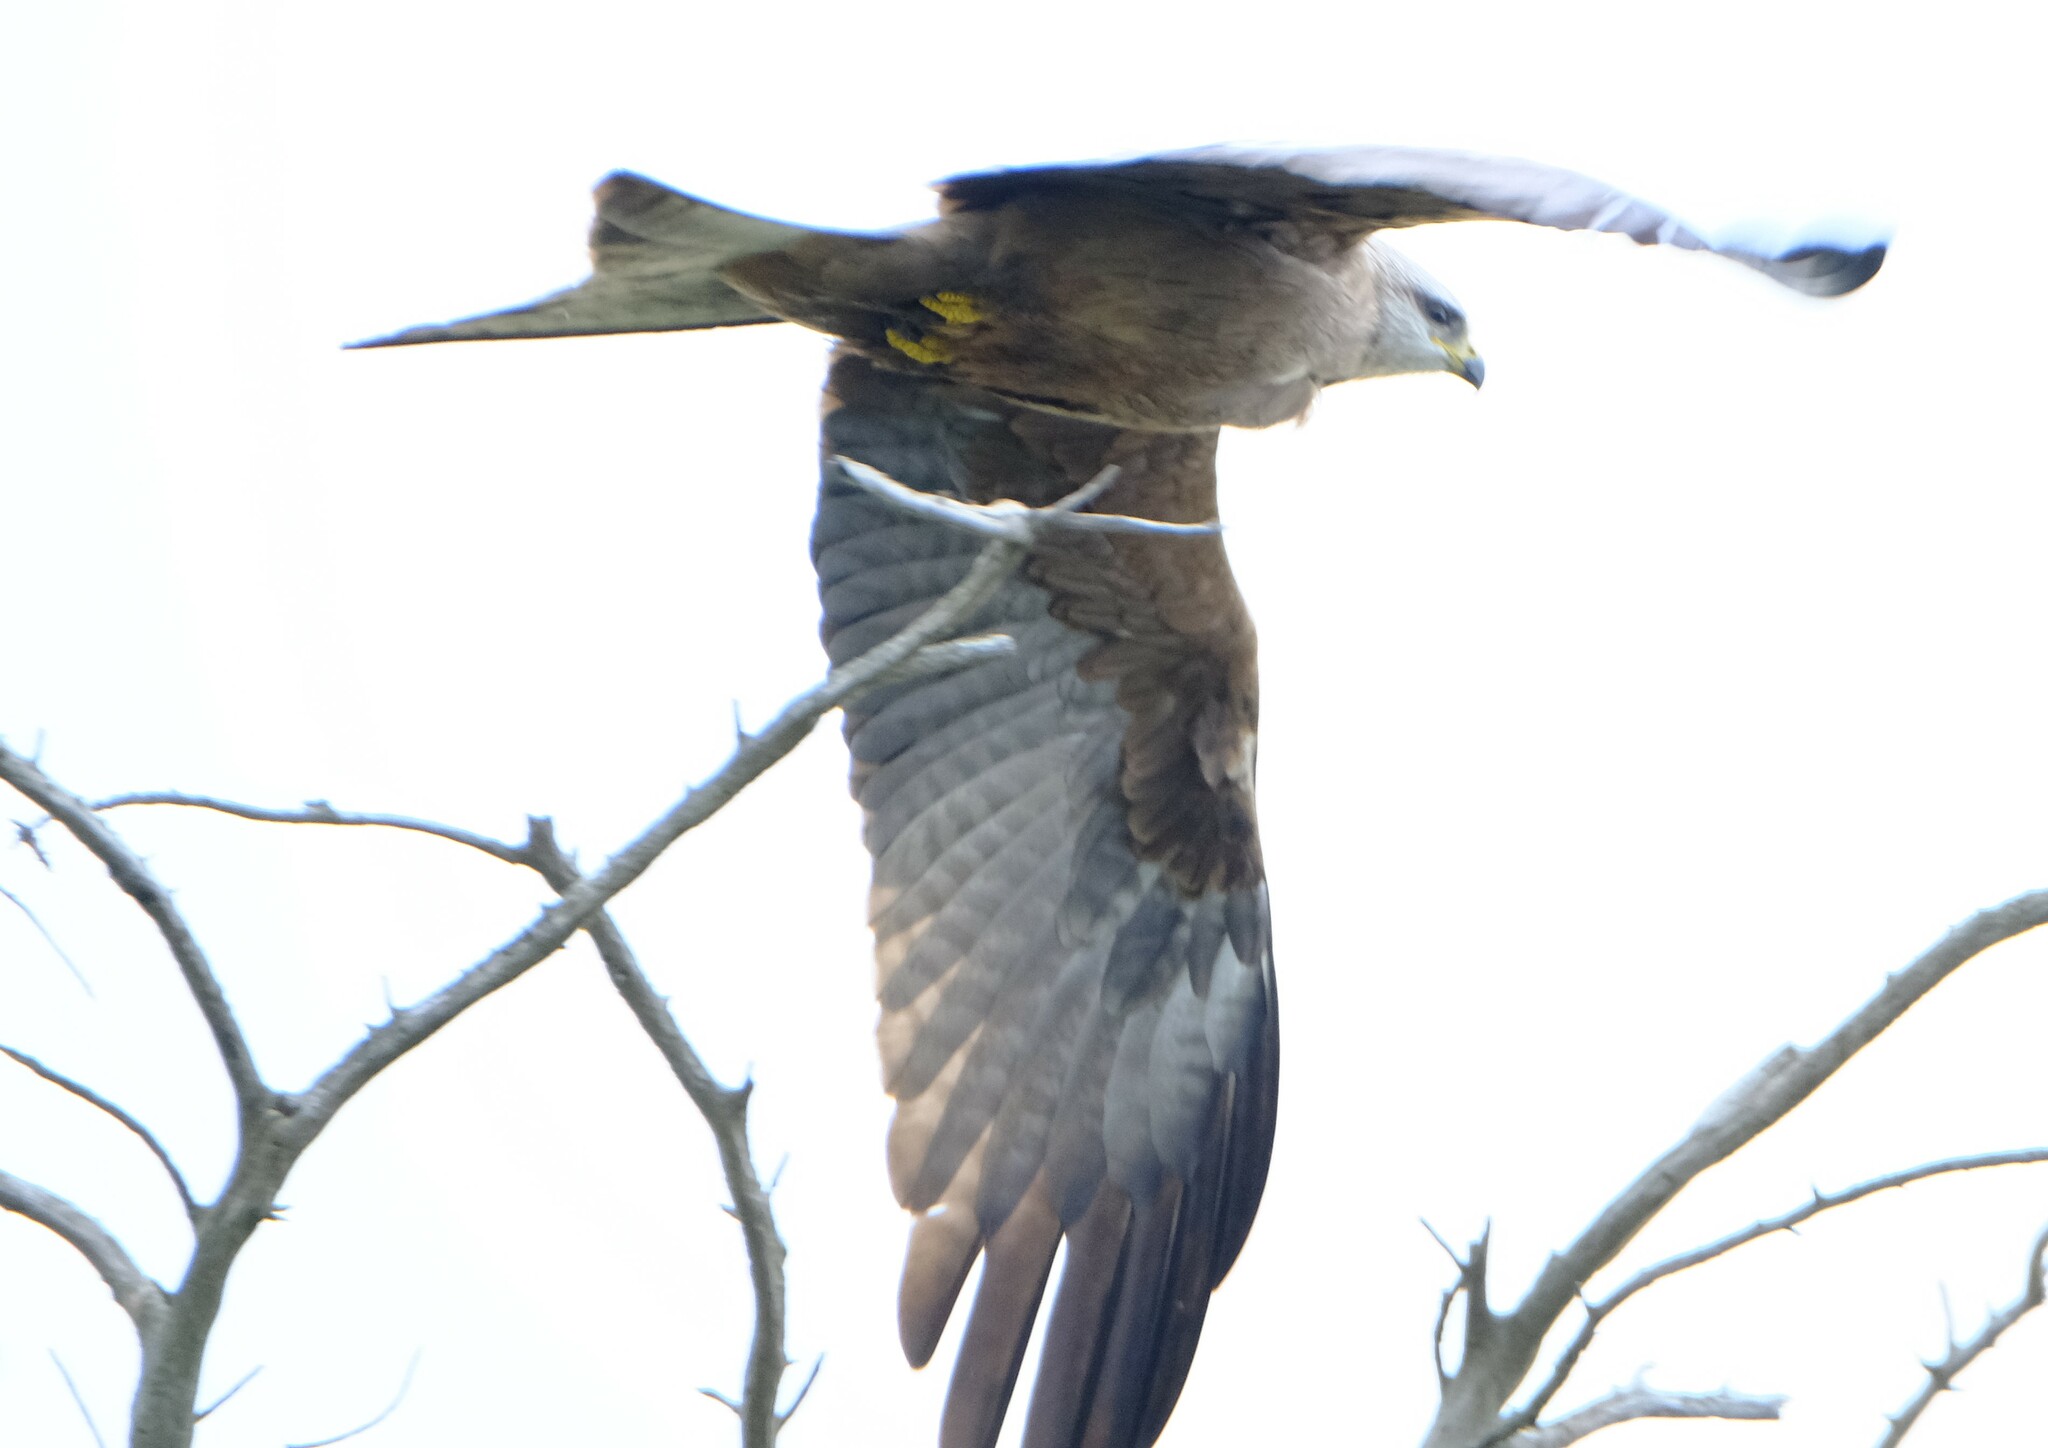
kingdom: Animalia
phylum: Chordata
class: Aves
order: Accipitriformes
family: Accipitridae
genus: Milvus
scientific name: Milvus migrans
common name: Black kite
